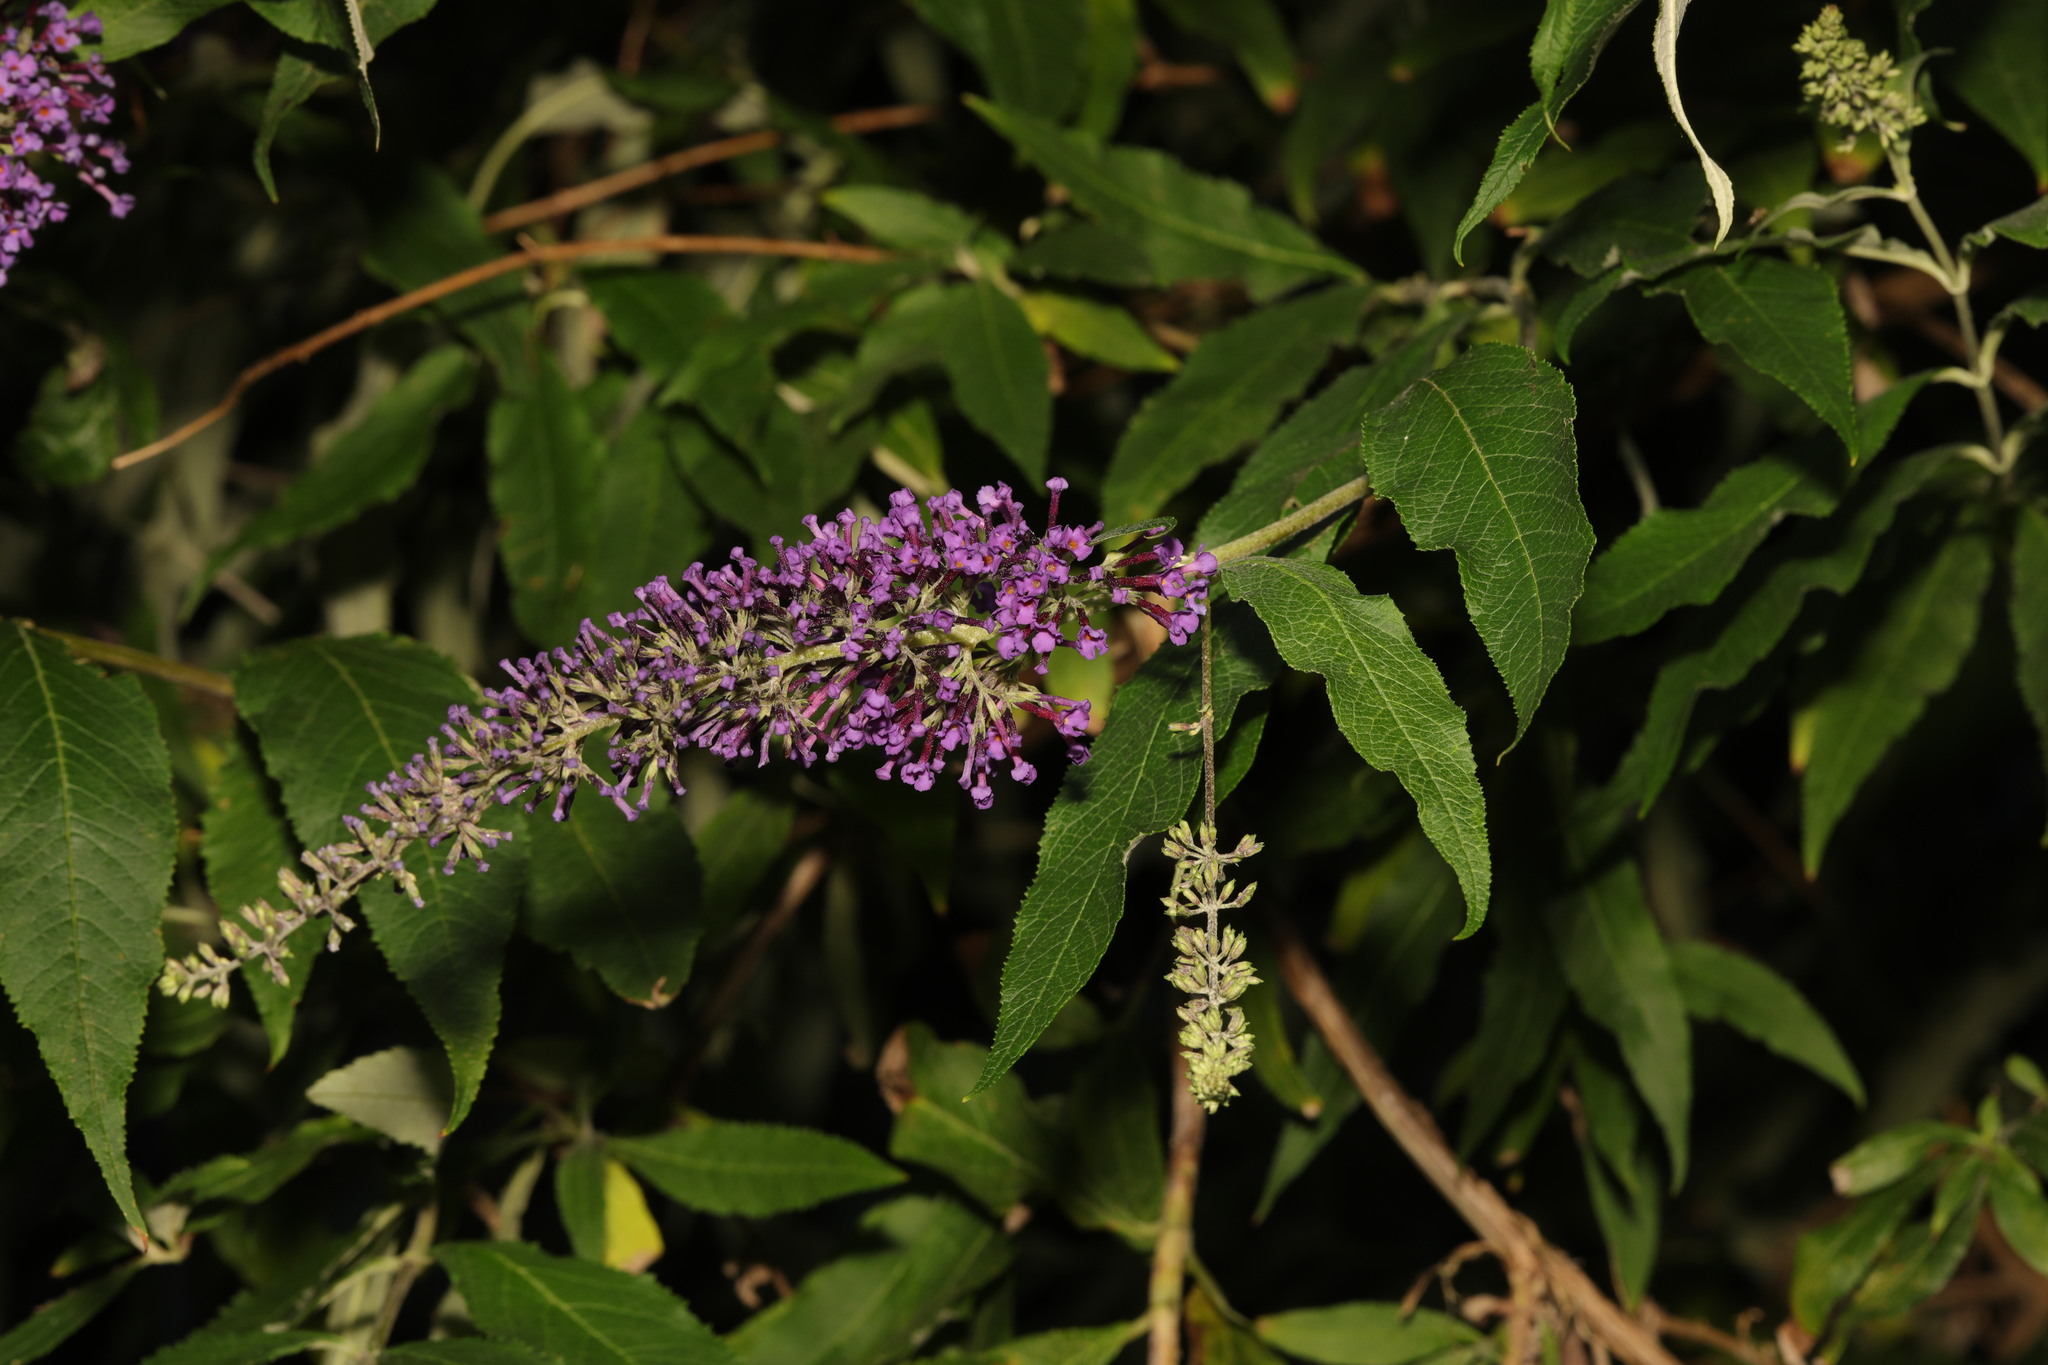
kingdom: Plantae
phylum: Tracheophyta
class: Magnoliopsida
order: Lamiales
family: Scrophulariaceae
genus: Buddleja
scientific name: Buddleja davidii
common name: Butterfly-bush
